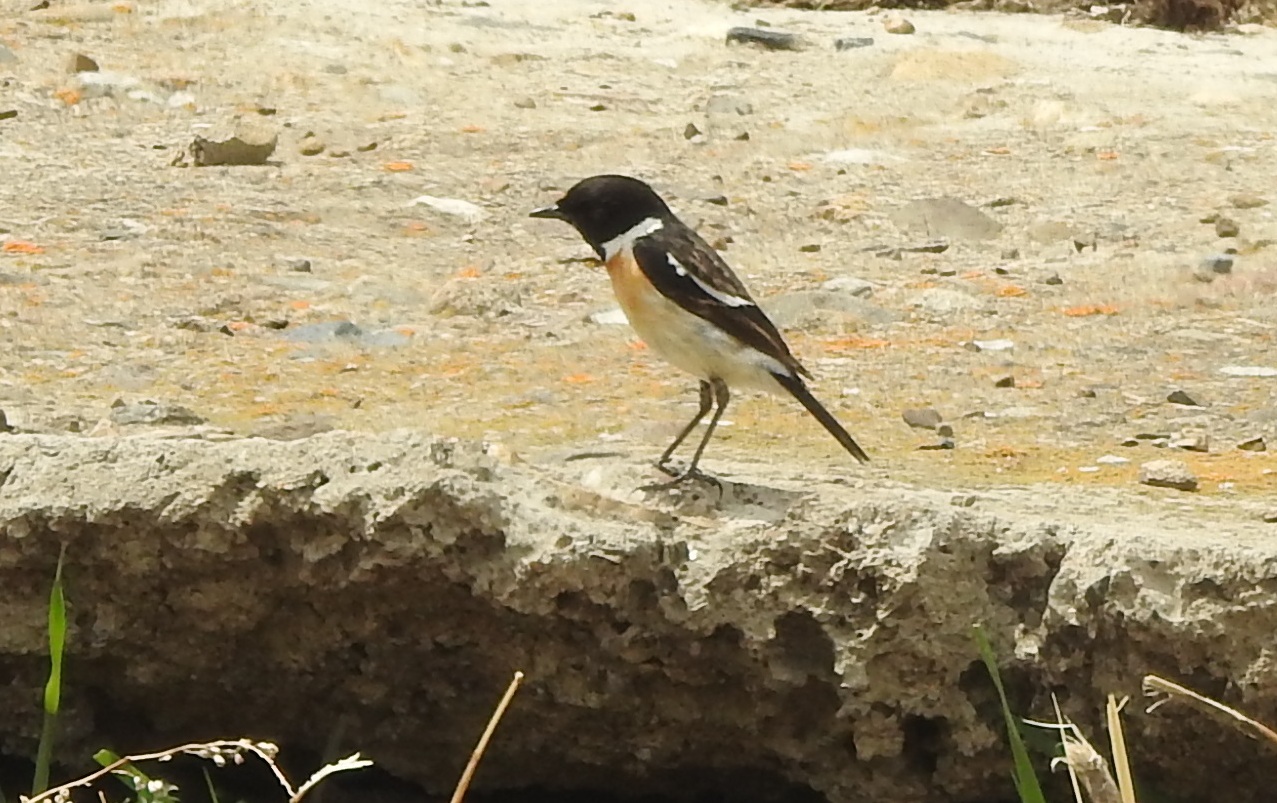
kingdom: Animalia
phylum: Chordata
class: Aves
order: Passeriformes
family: Muscicapidae
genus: Saxicola
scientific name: Saxicola stejnegeri
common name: Stejneger's stonechat
